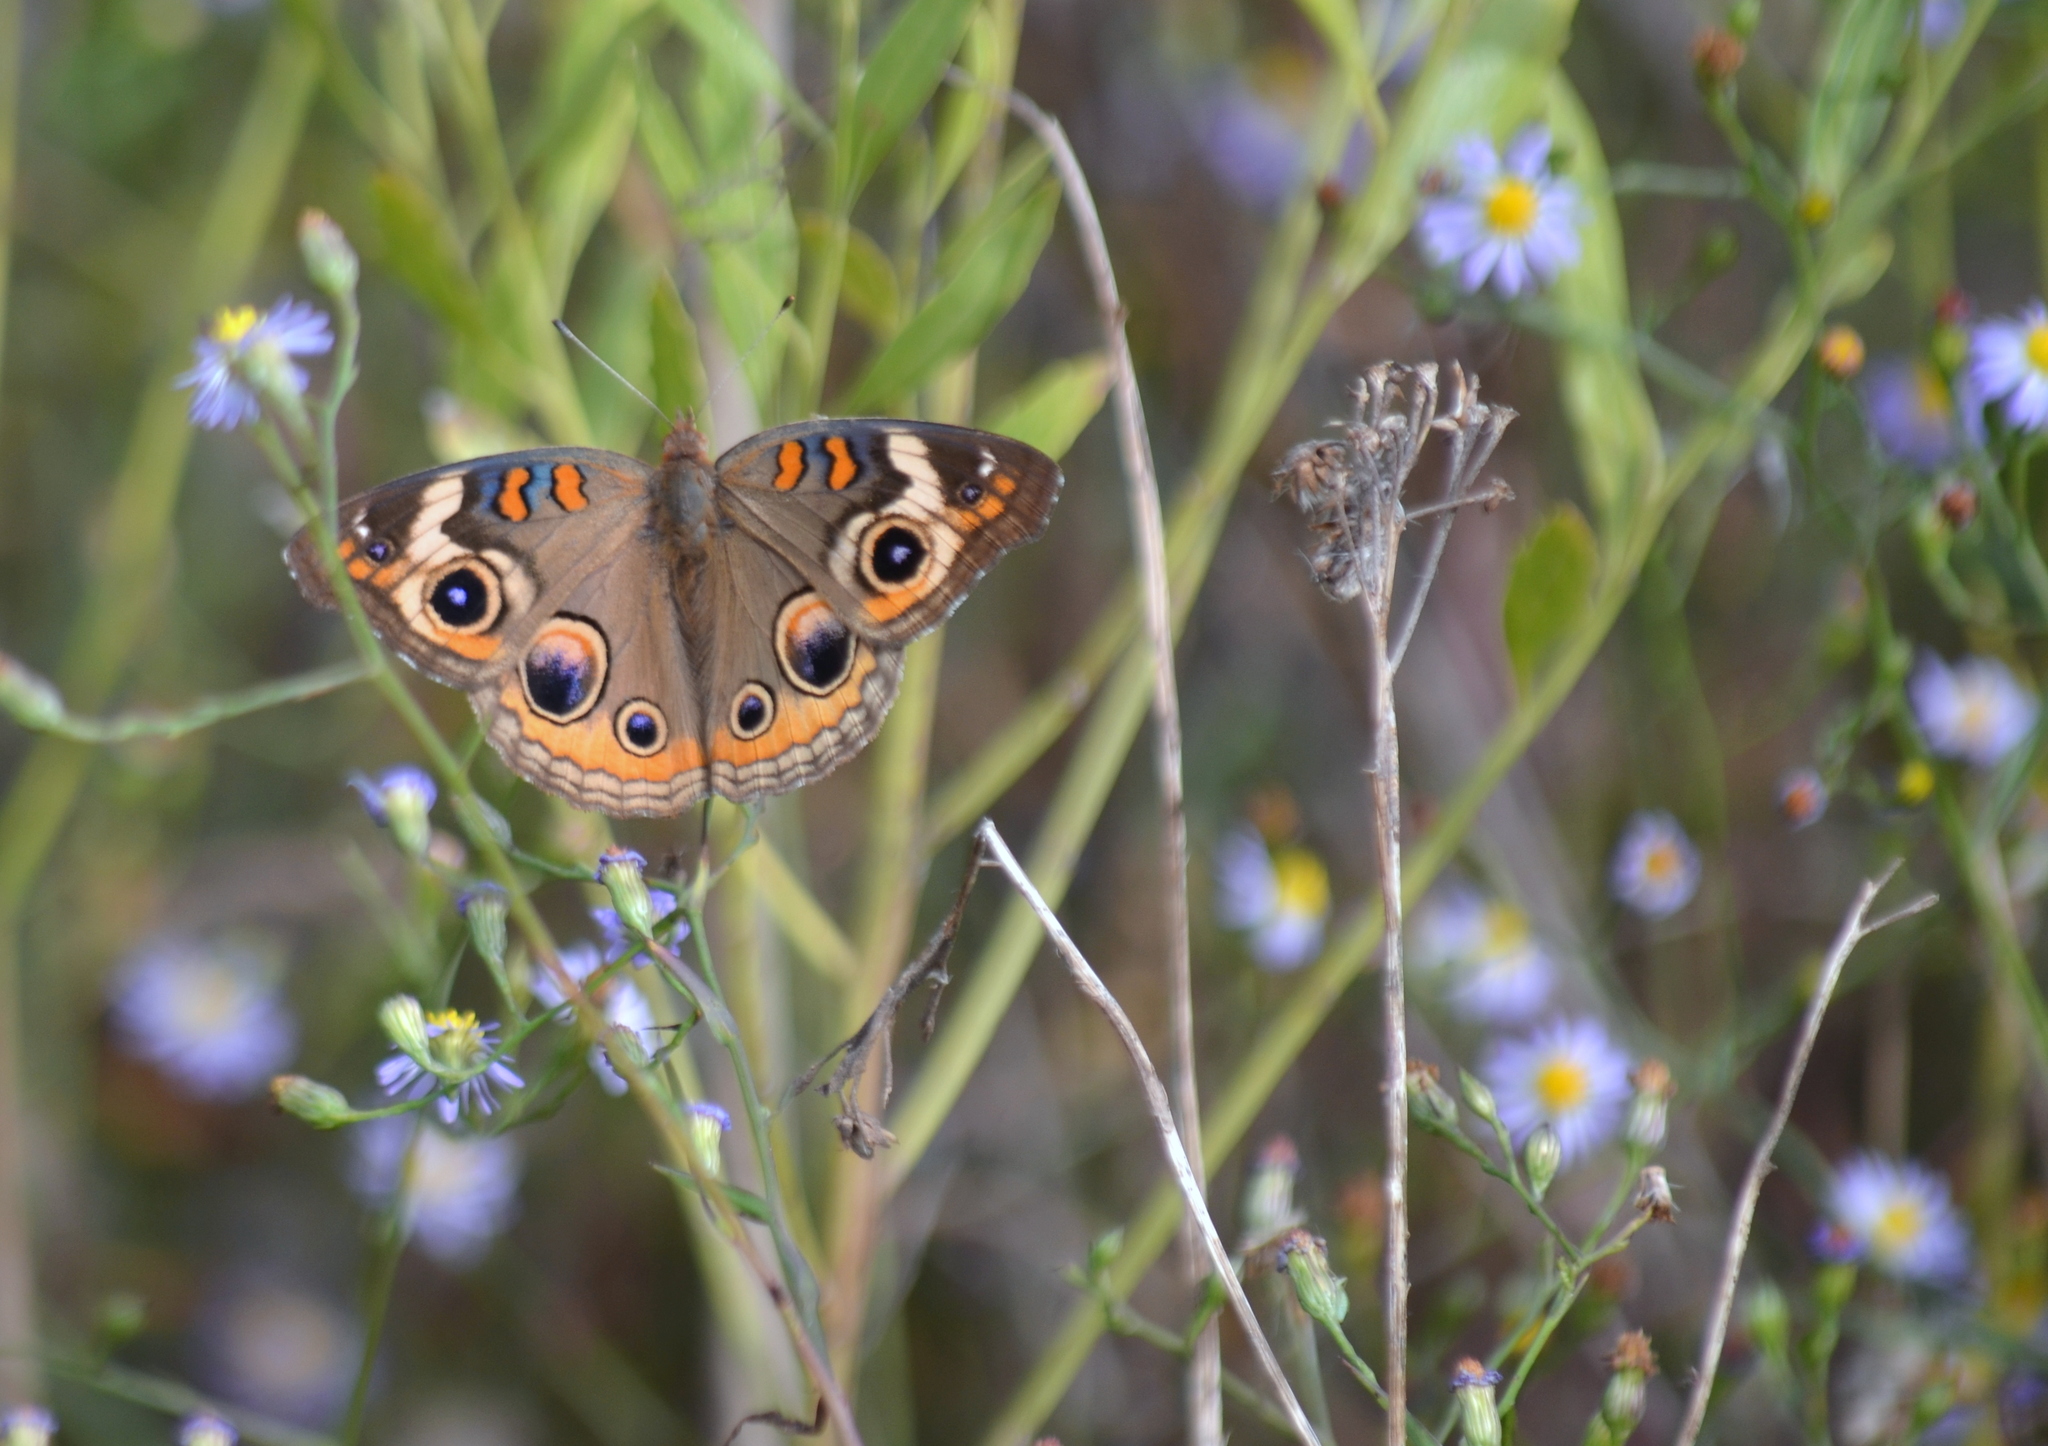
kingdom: Animalia
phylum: Arthropoda
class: Insecta
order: Lepidoptera
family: Nymphalidae
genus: Junonia
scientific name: Junonia coenia
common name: Common buckeye
